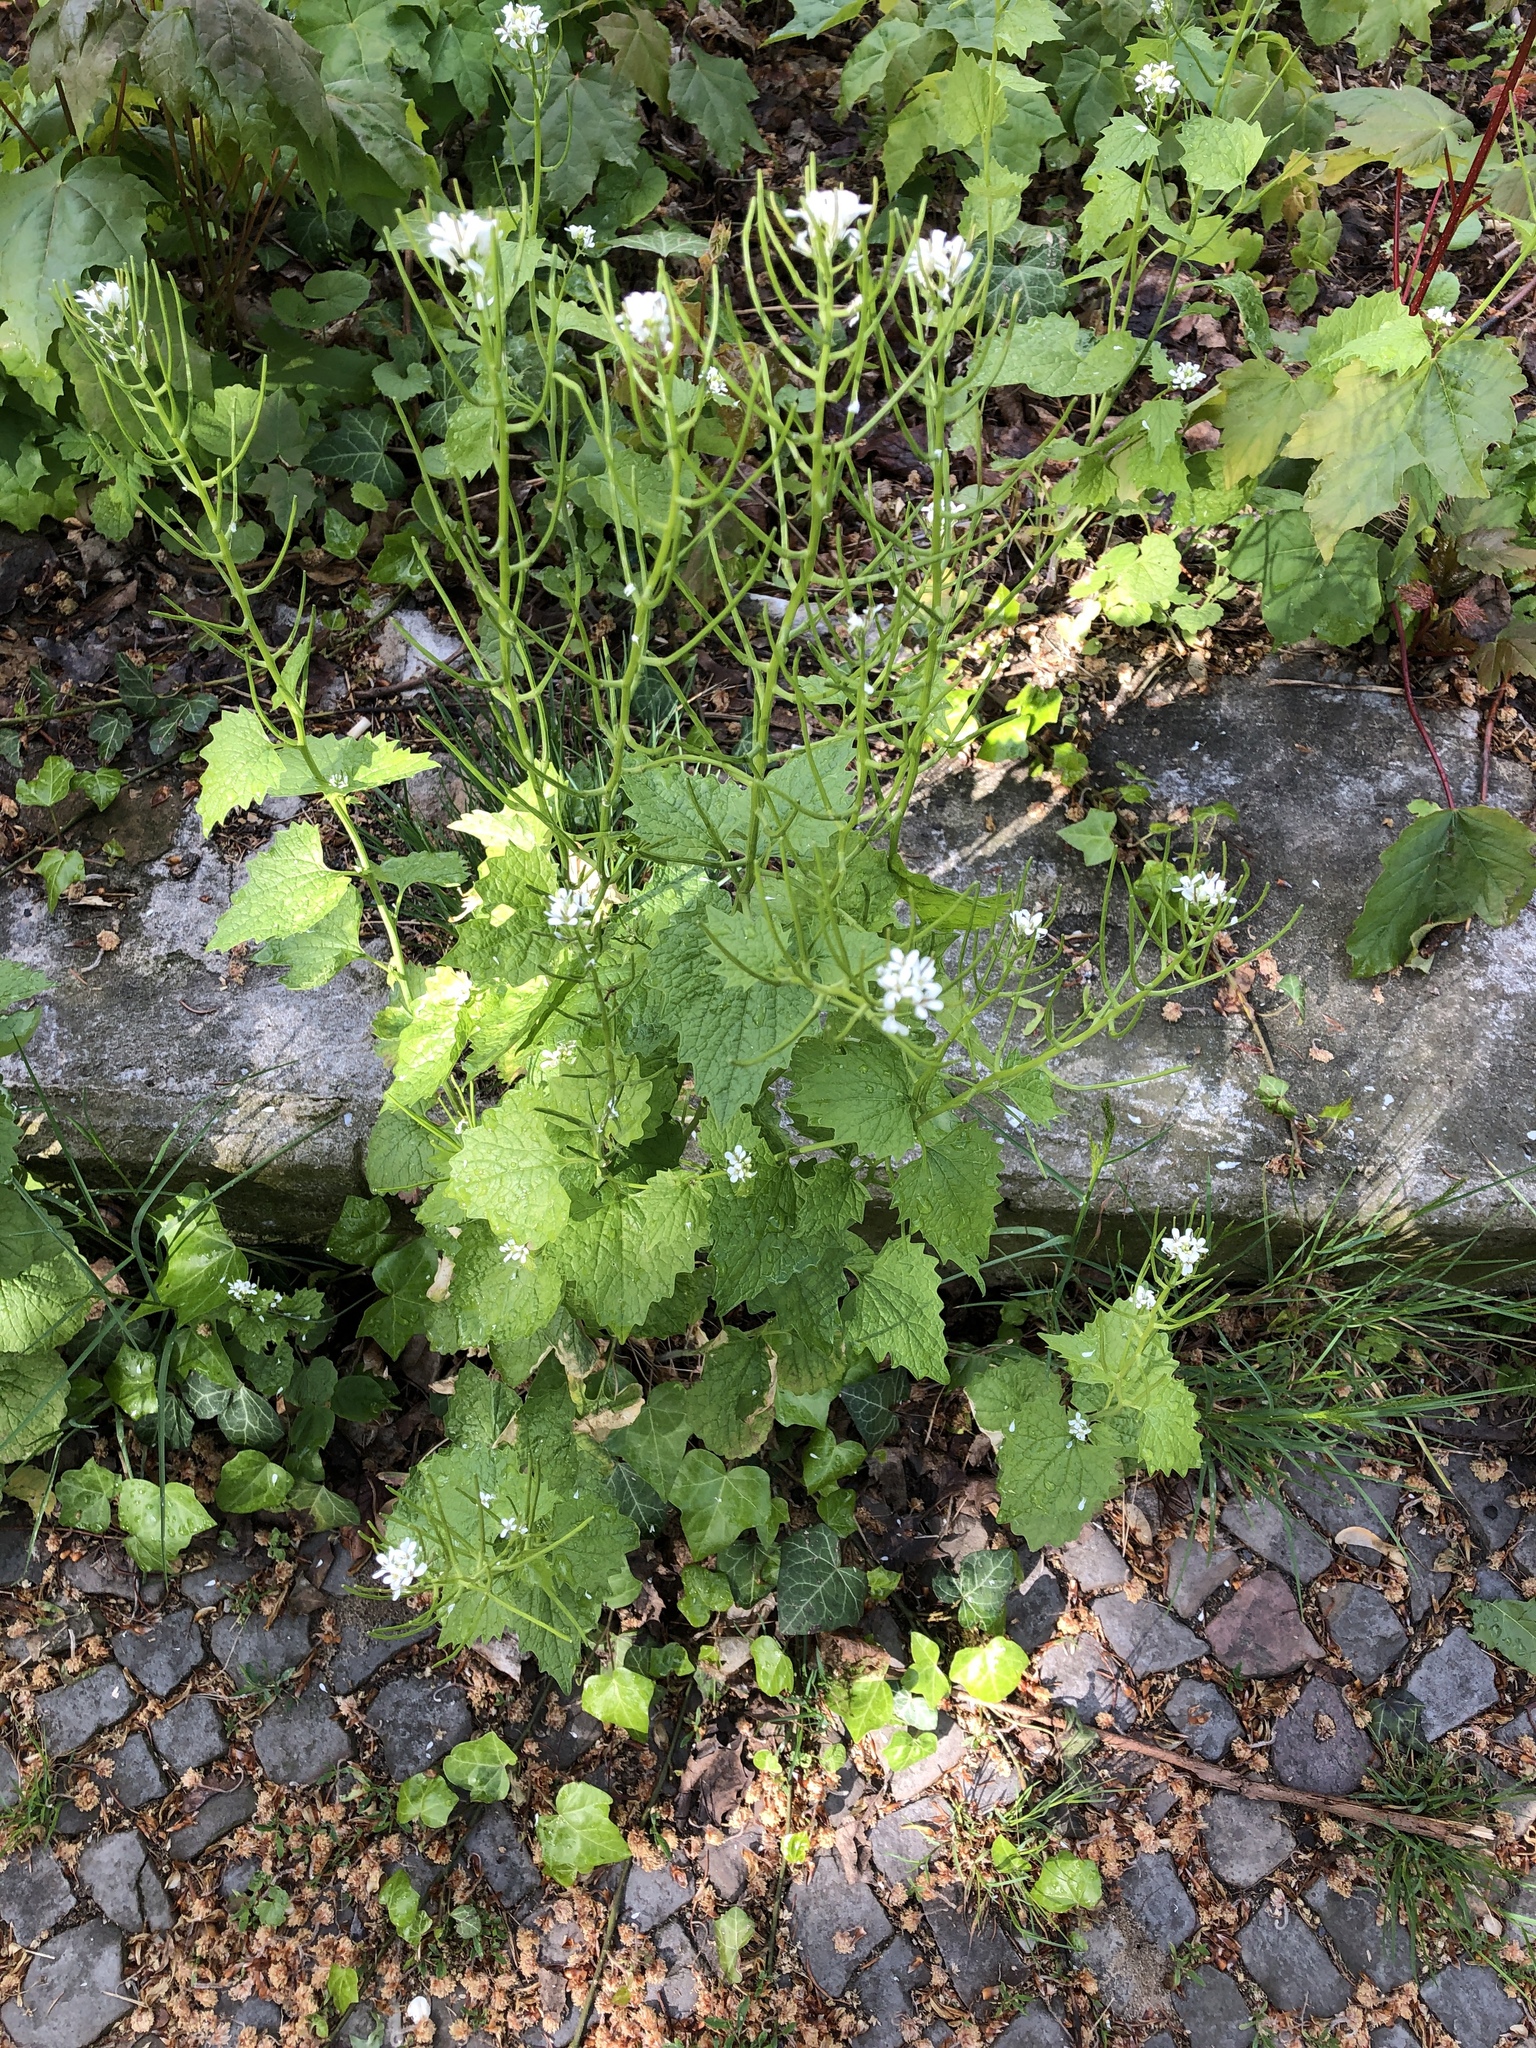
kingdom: Plantae
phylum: Tracheophyta
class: Magnoliopsida
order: Brassicales
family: Brassicaceae
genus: Alliaria
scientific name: Alliaria petiolata
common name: Garlic mustard
